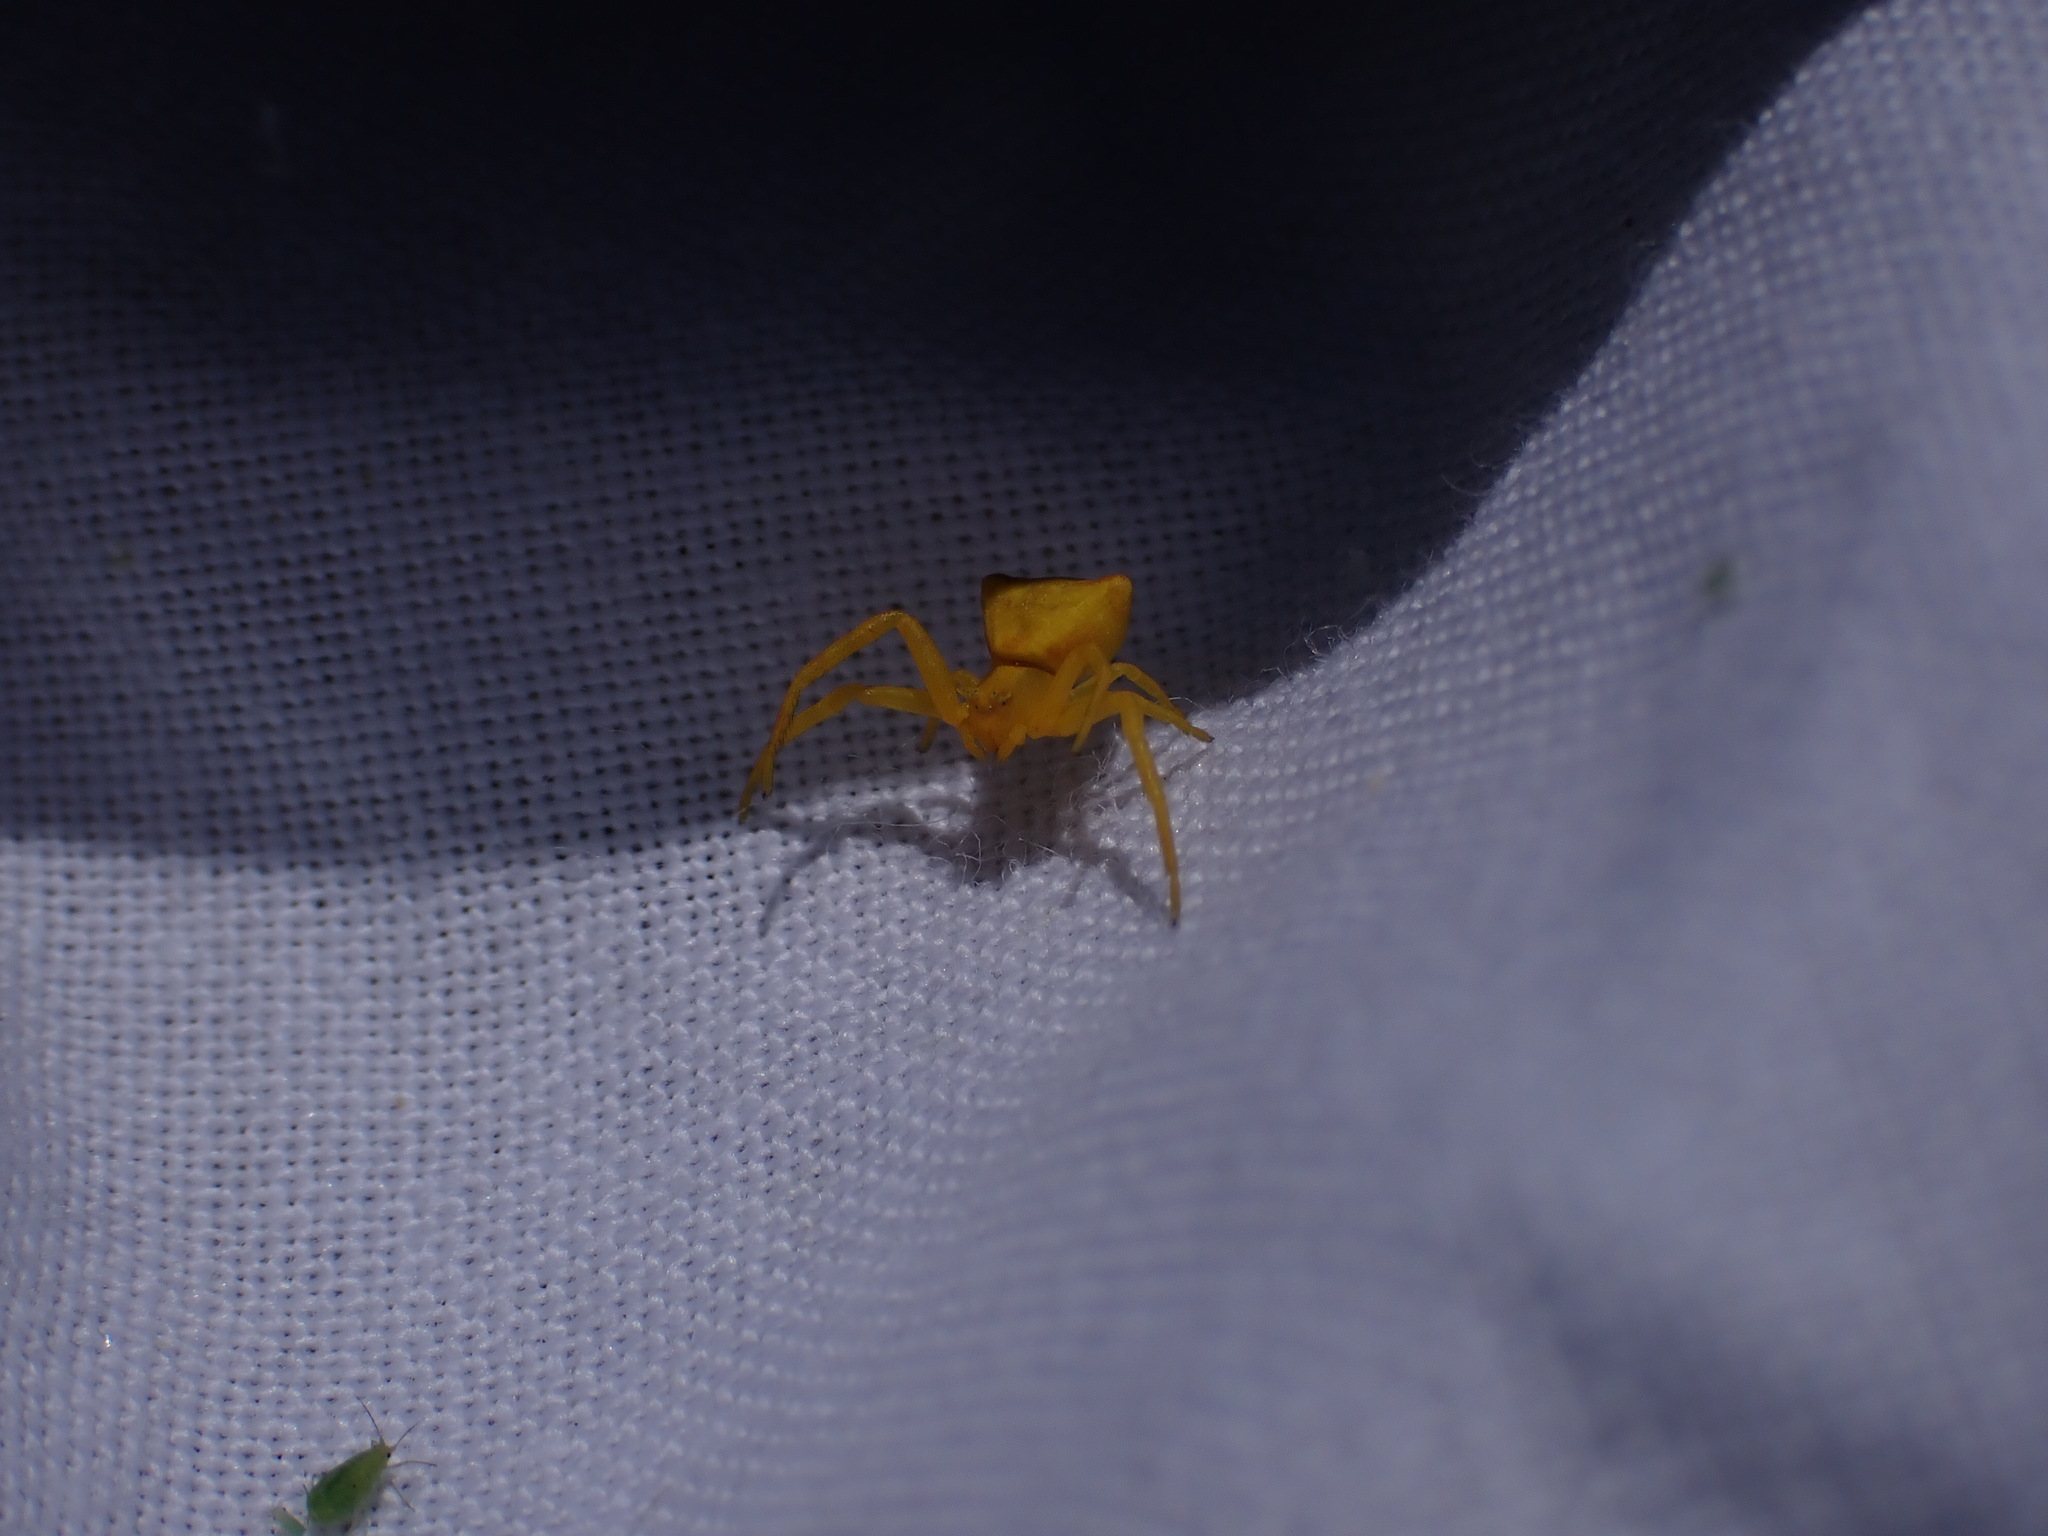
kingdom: Animalia
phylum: Arthropoda
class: Arachnida
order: Araneae
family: Thomisidae
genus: Thomisus
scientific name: Thomisus onustus
